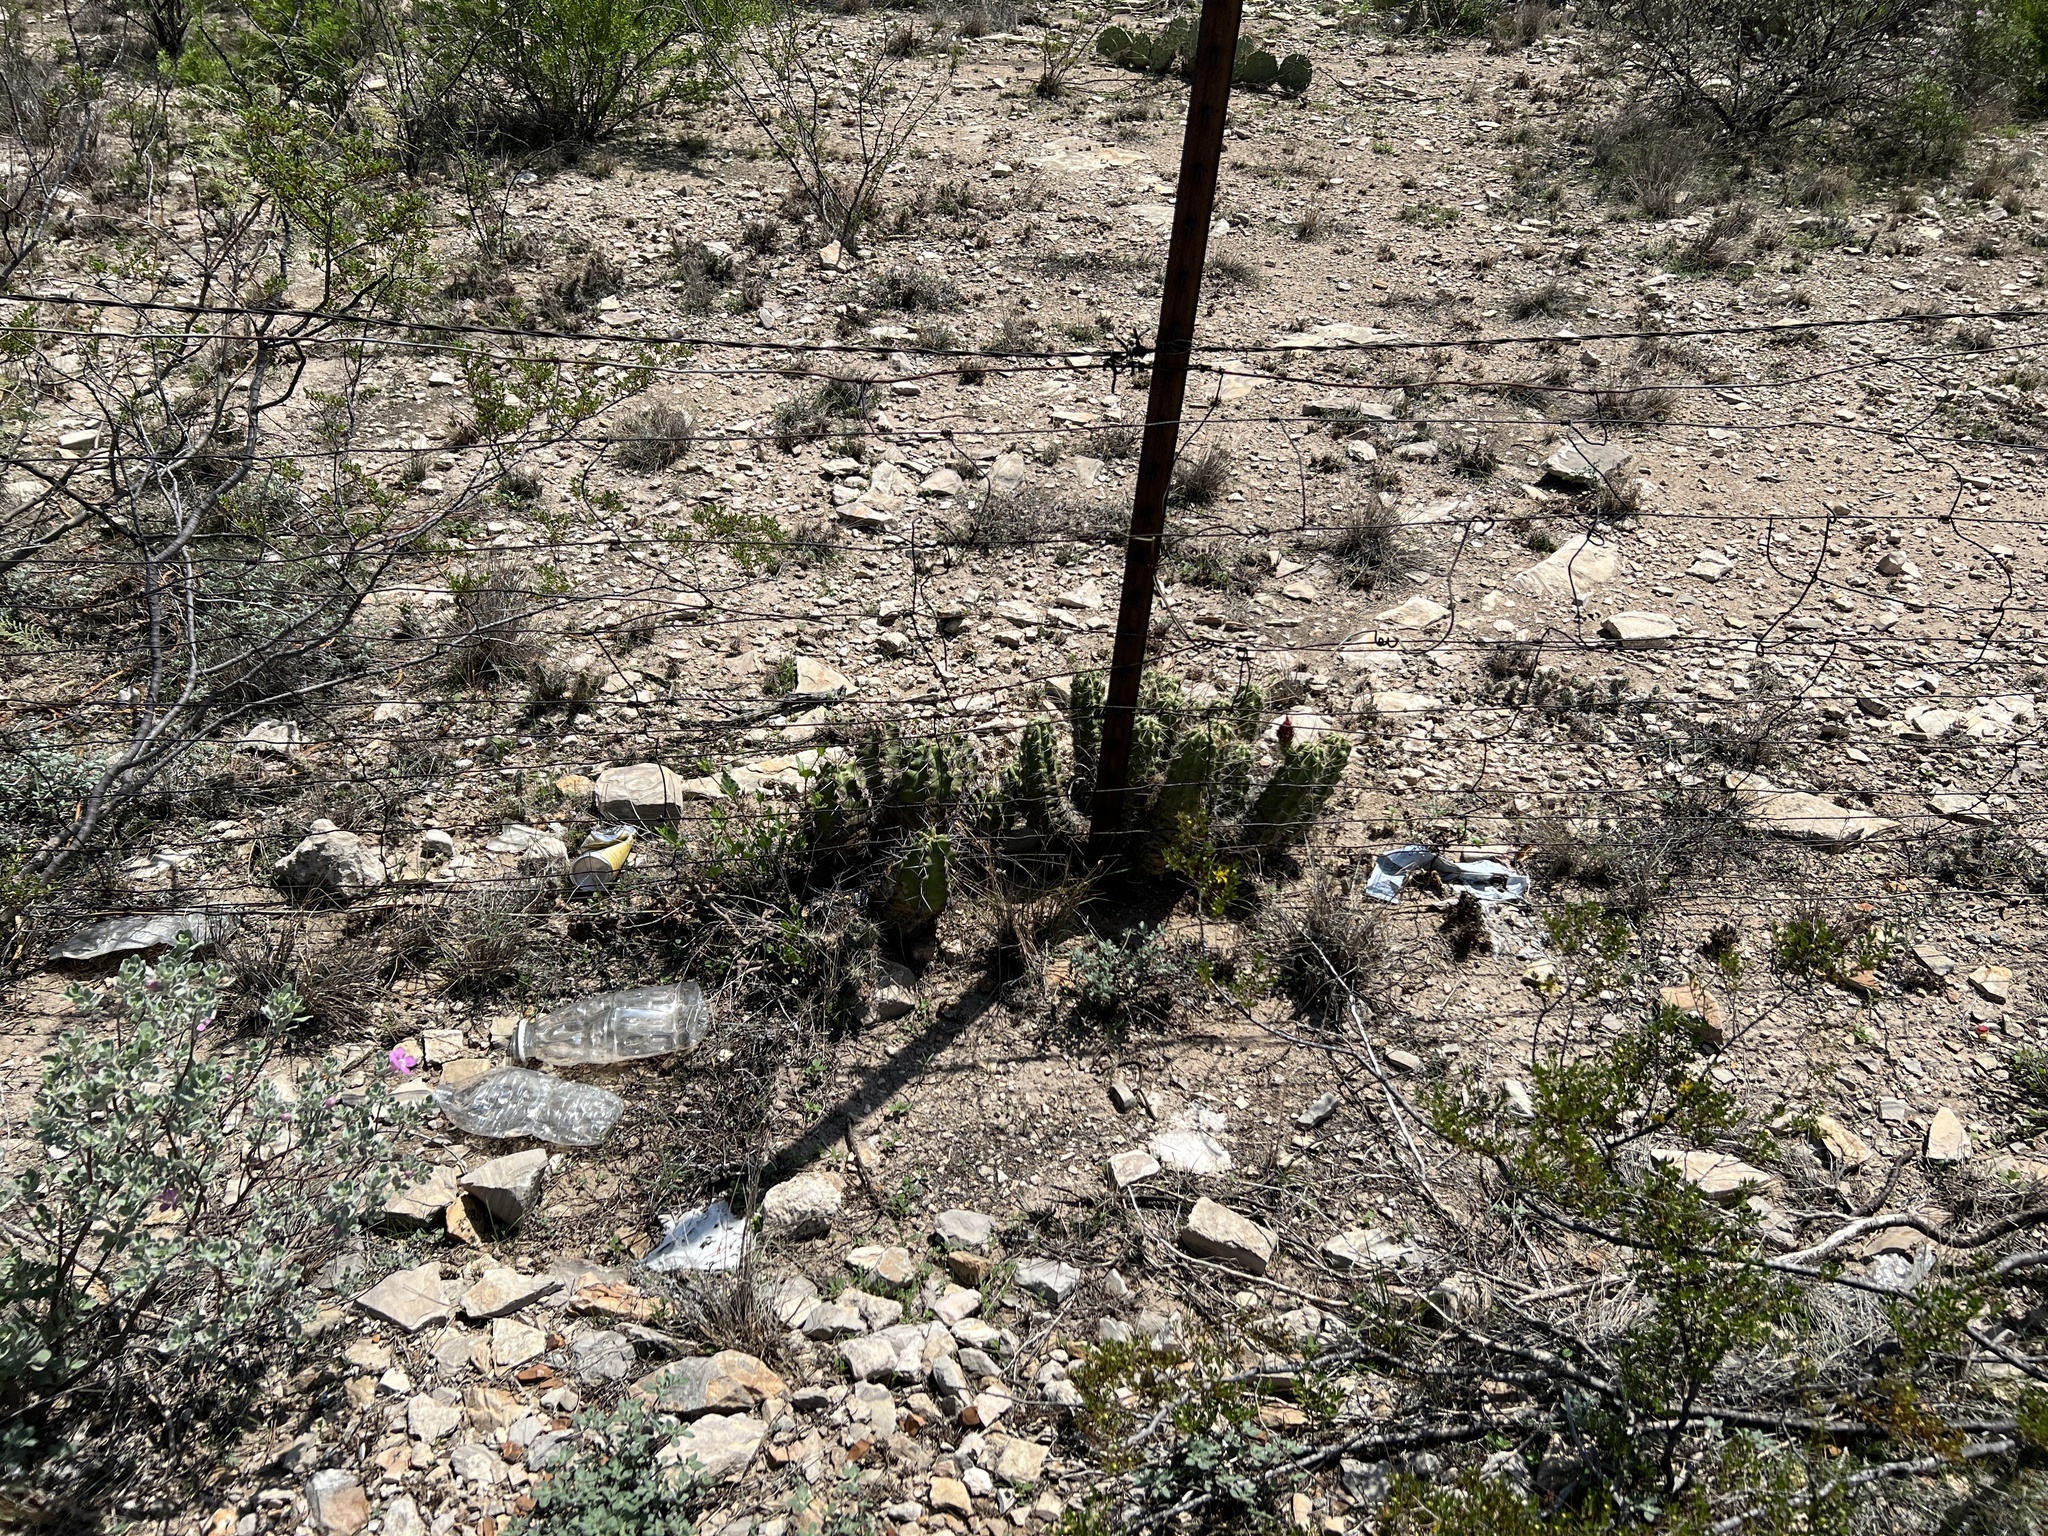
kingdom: Plantae
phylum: Tracheophyta
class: Magnoliopsida
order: Caryophyllales
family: Cactaceae
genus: Echinocereus
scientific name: Echinocereus enneacanthus
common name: Pitaya
